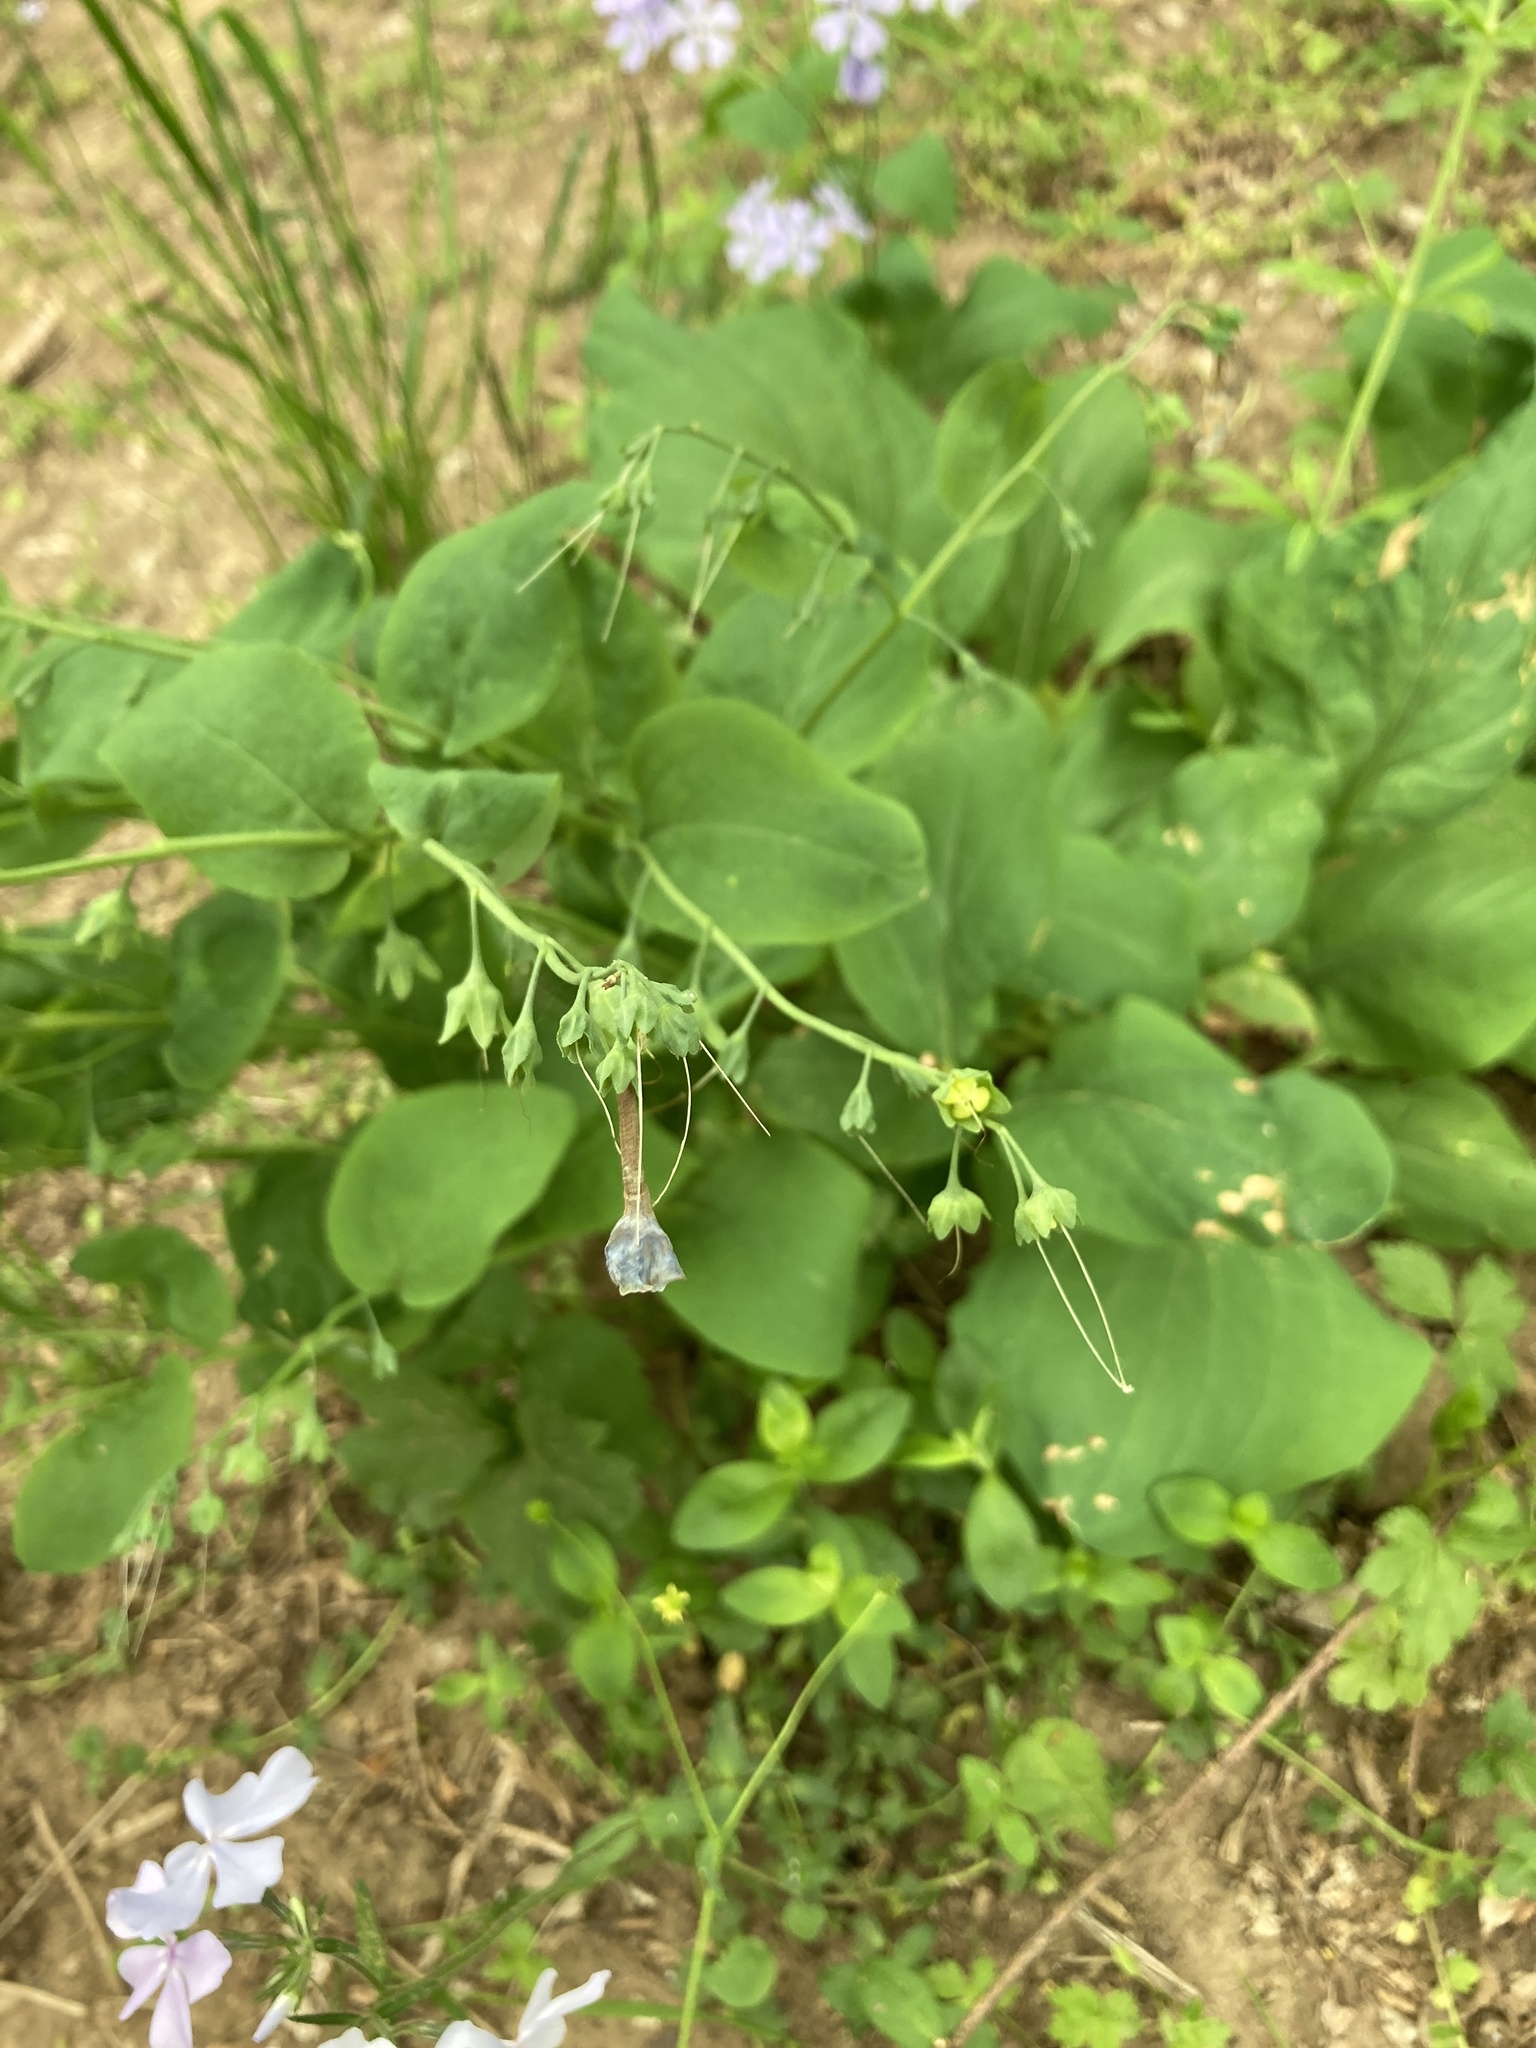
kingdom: Plantae
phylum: Tracheophyta
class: Magnoliopsida
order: Boraginales
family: Boraginaceae
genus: Mertensia
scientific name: Mertensia virginica
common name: Virginia bluebells
